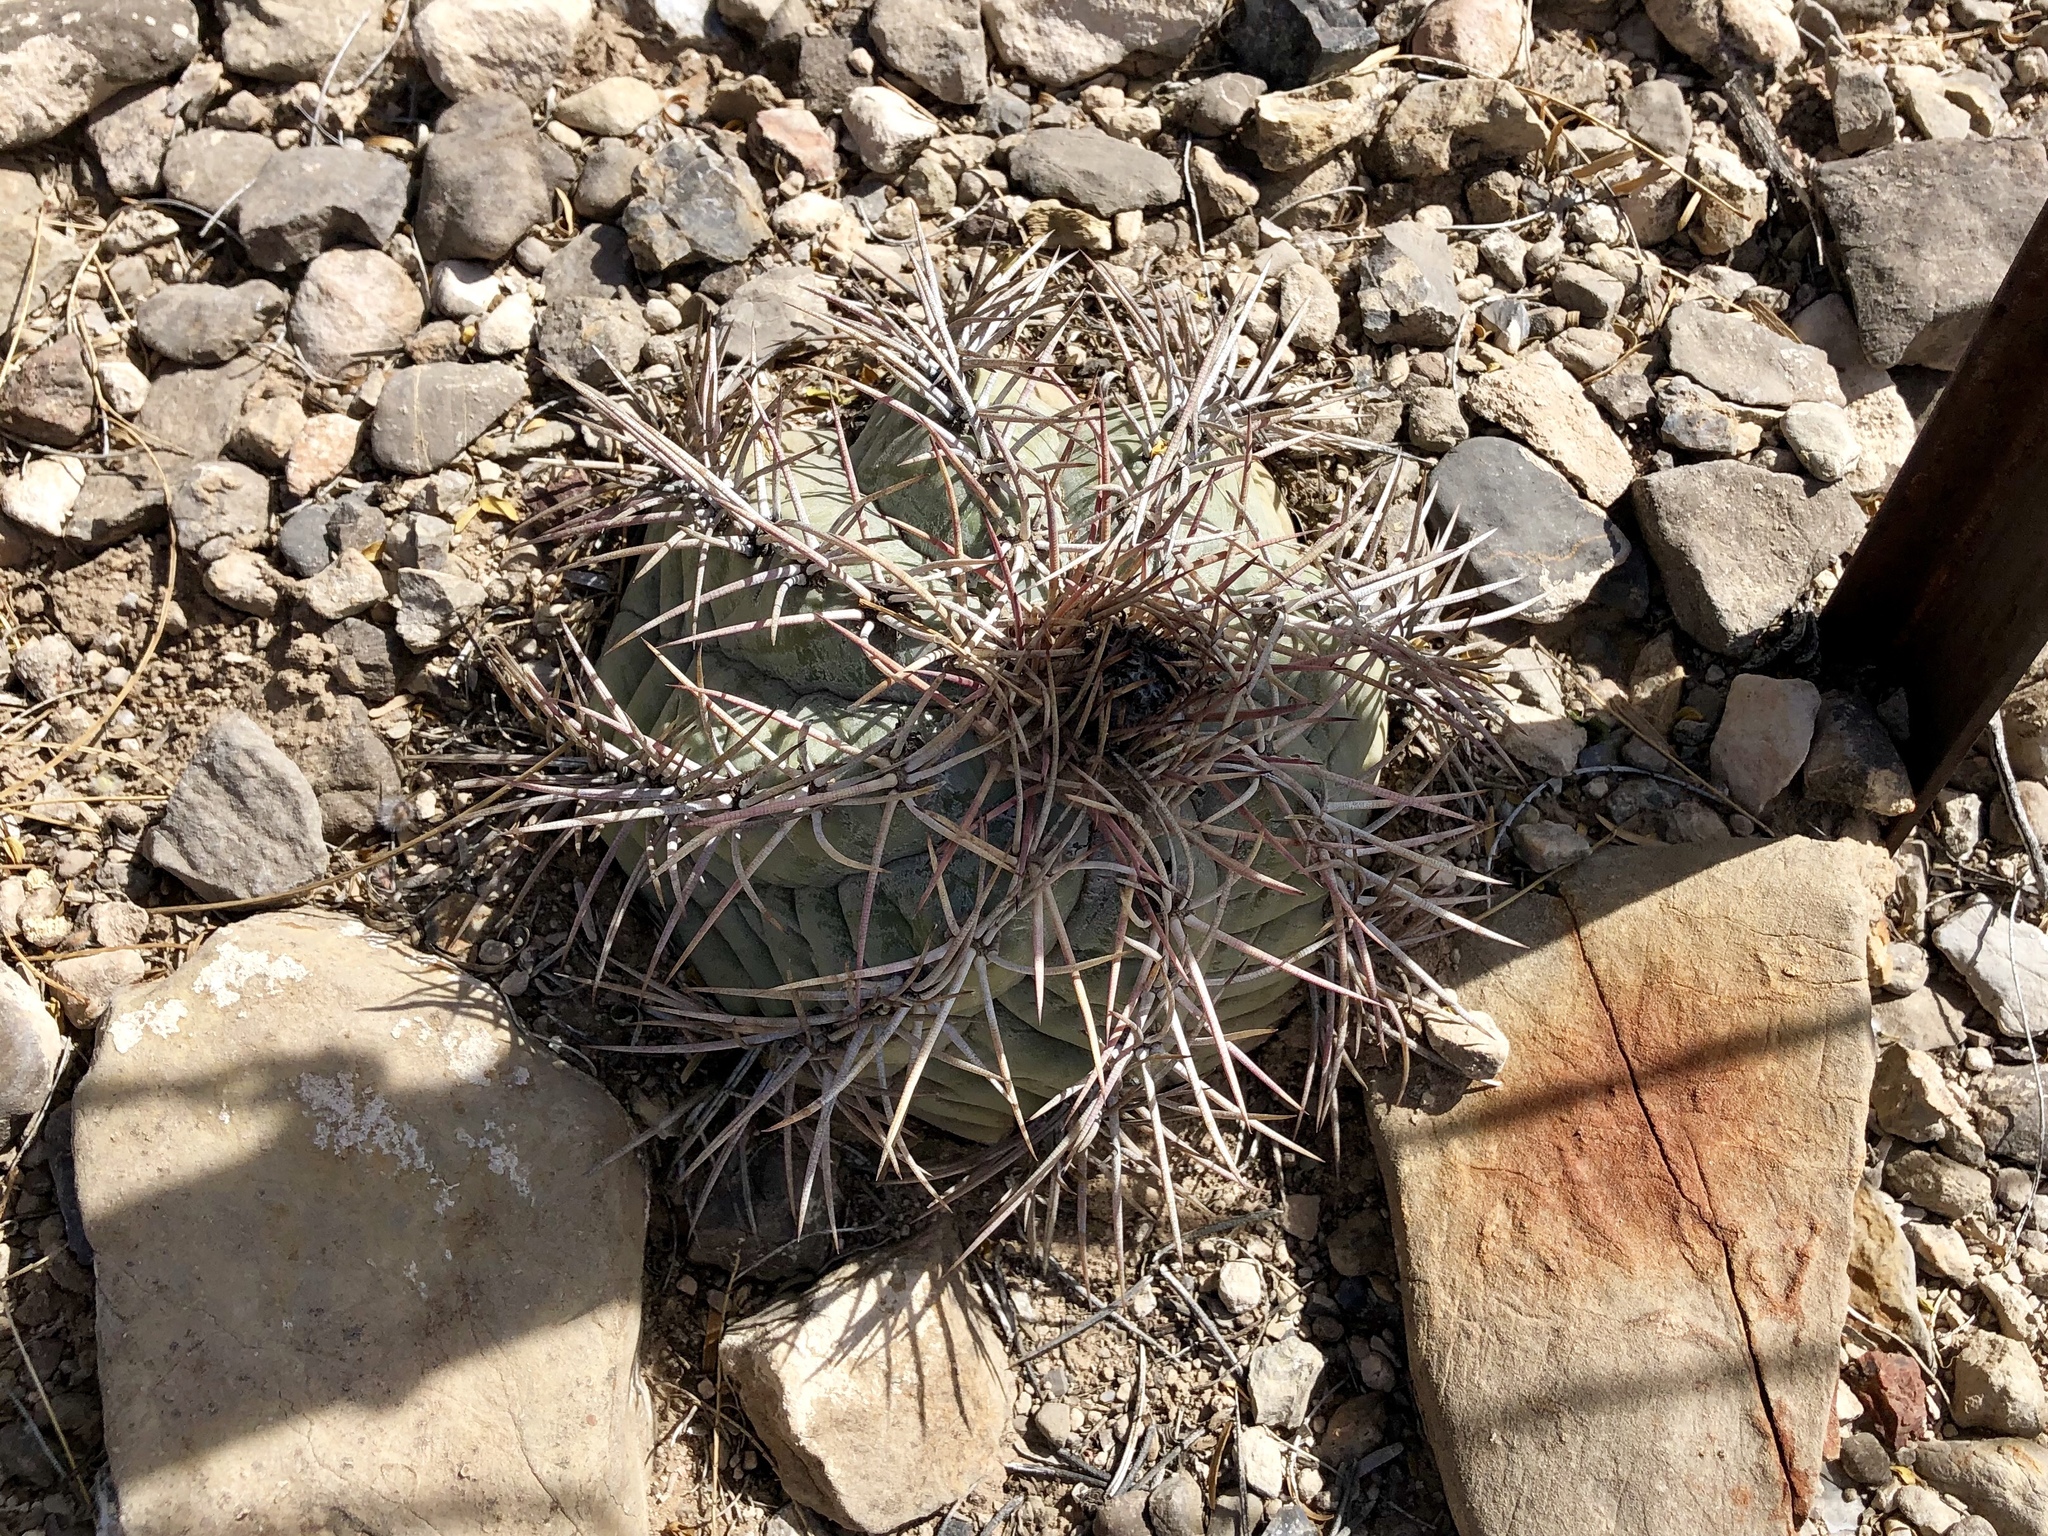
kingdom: Plantae
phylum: Tracheophyta
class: Magnoliopsida
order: Caryophyllales
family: Cactaceae
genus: Echinocactus
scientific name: Echinocactus horizonthalonius
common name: Devilshead
